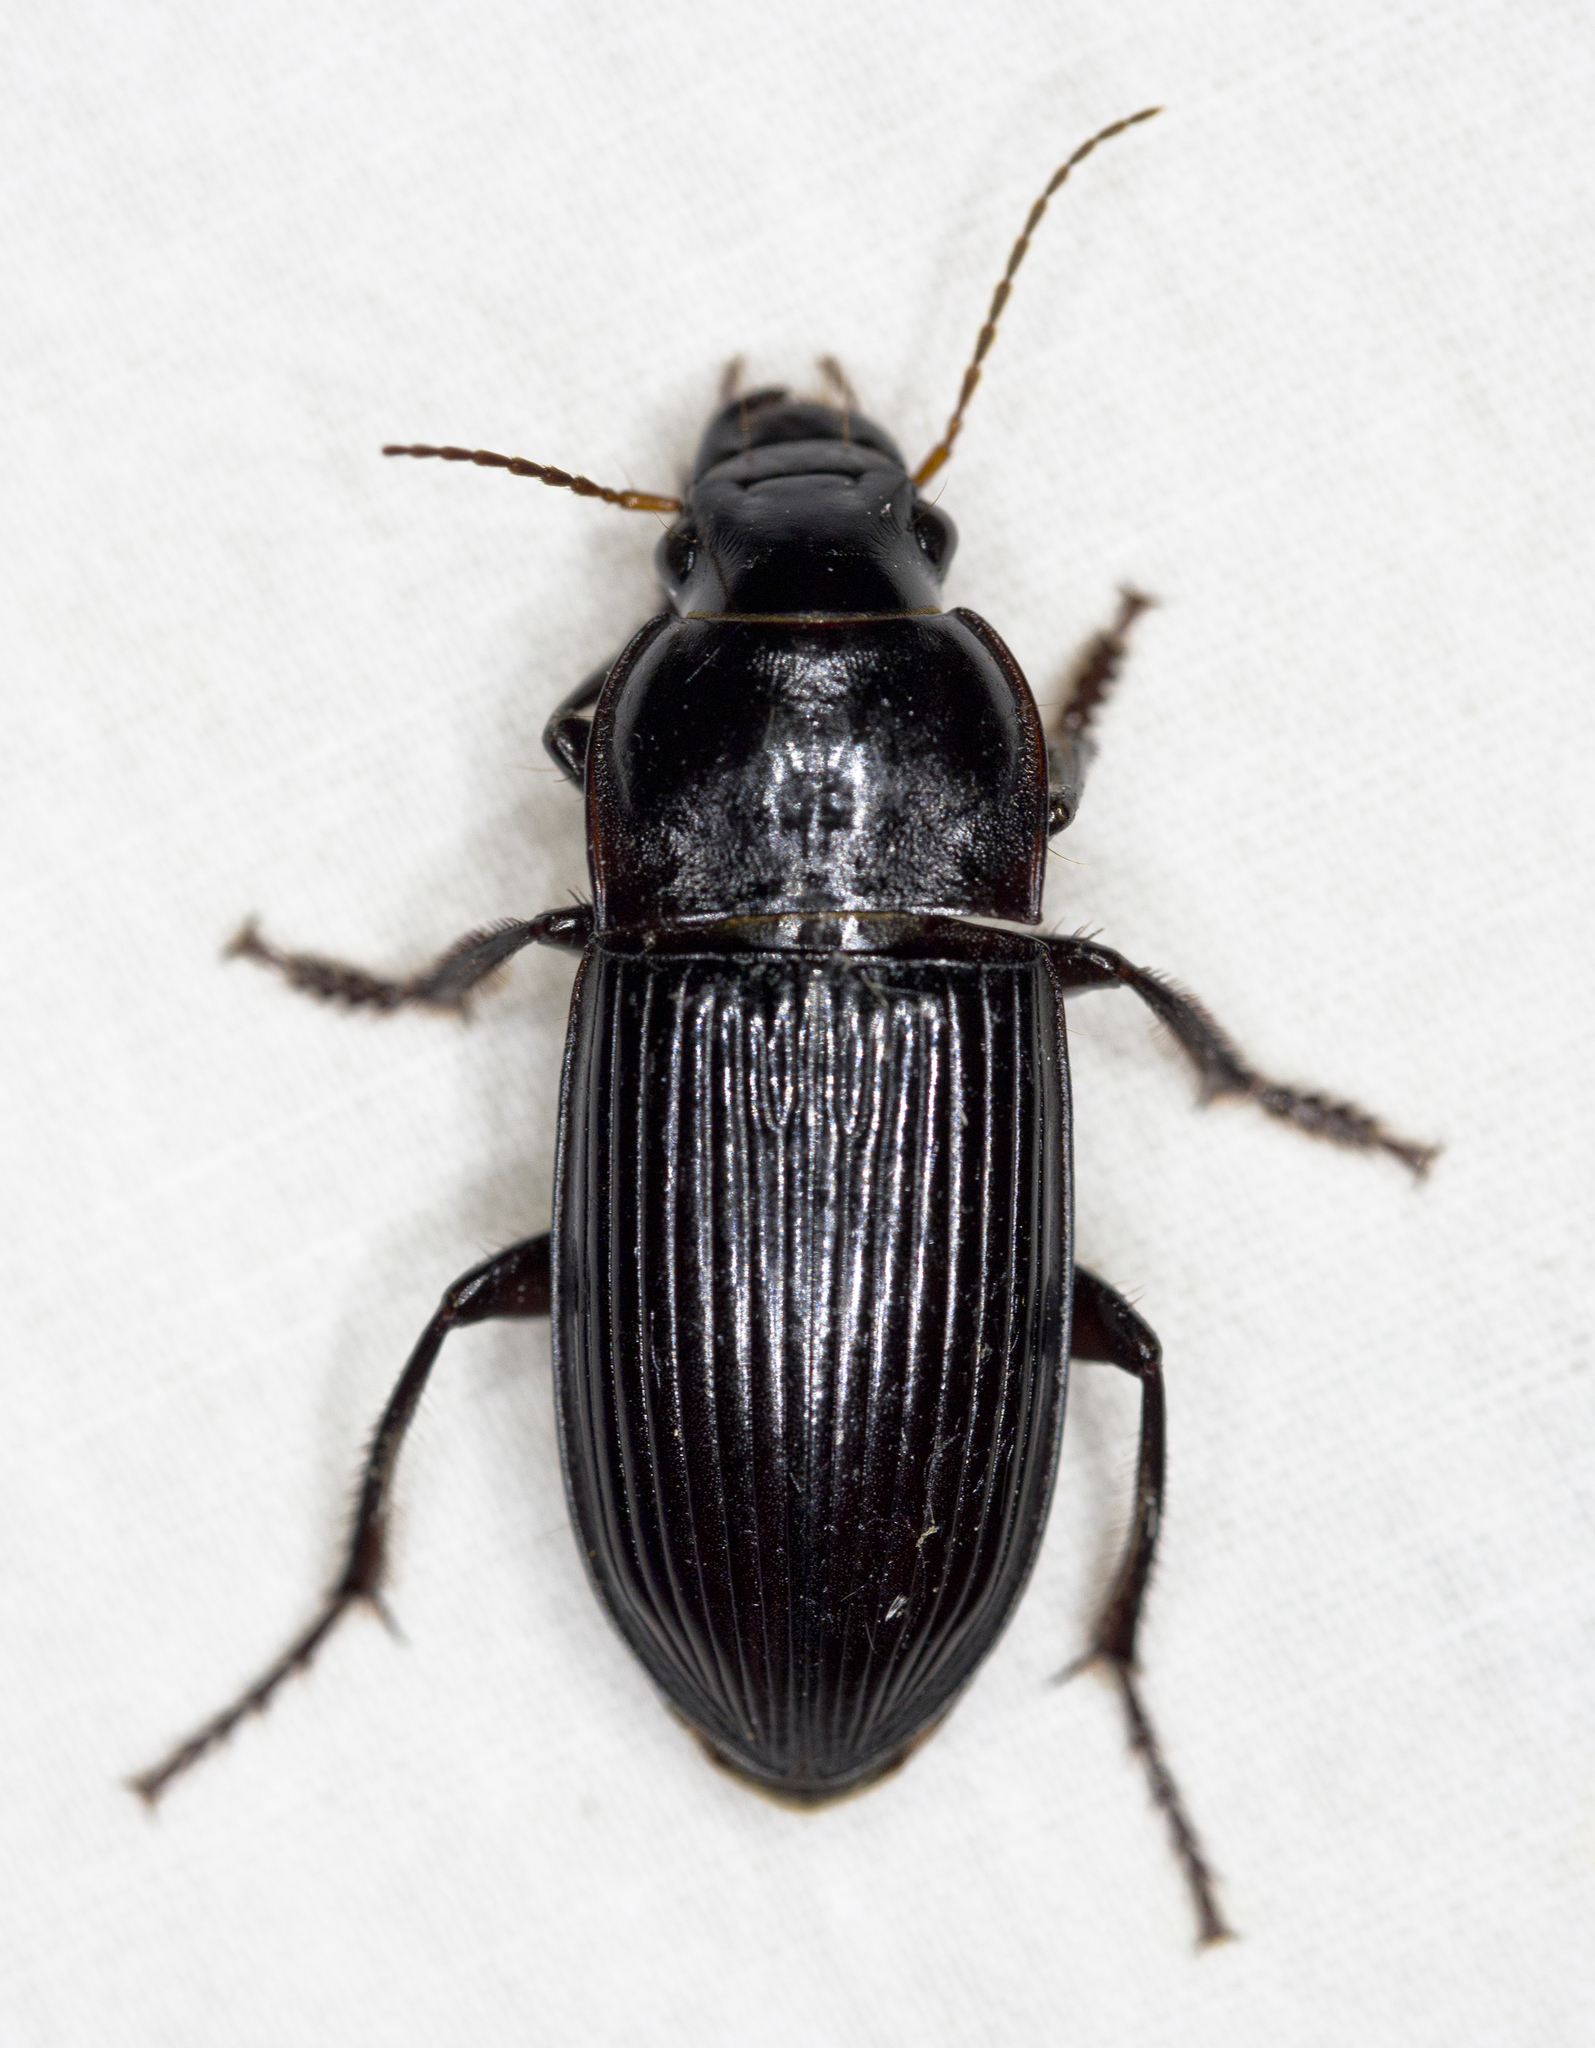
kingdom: Animalia
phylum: Arthropoda
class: Insecta
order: Coleoptera
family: Carabidae
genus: Harpalus
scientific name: Harpalus caliginosus
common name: Murky ground beetle
